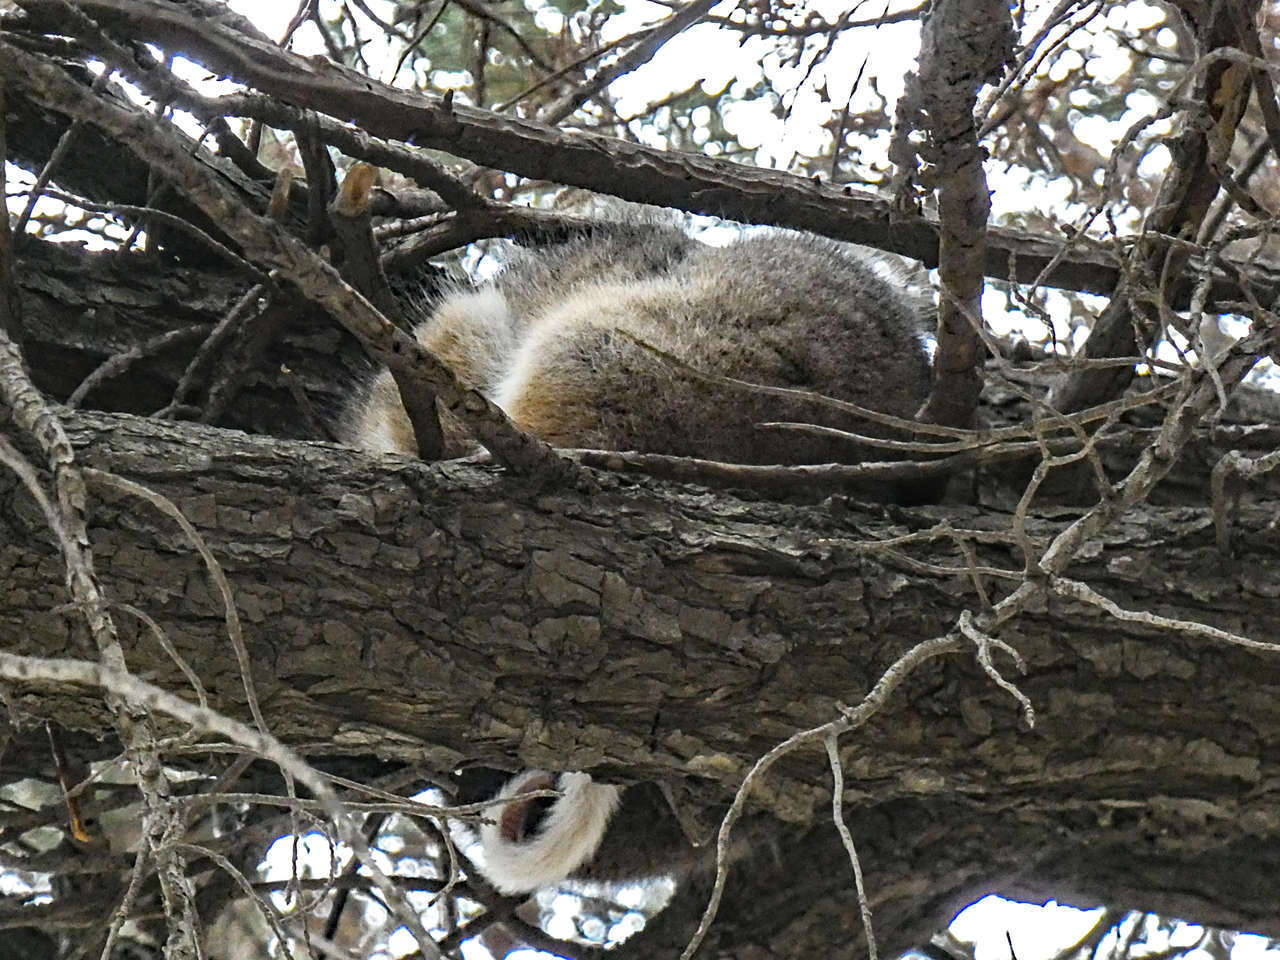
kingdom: Animalia
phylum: Chordata
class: Mammalia
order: Diprotodontia
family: Pseudocheiridae
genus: Pseudocheirus
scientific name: Pseudocheirus peregrinus
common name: Common ringtail possum
